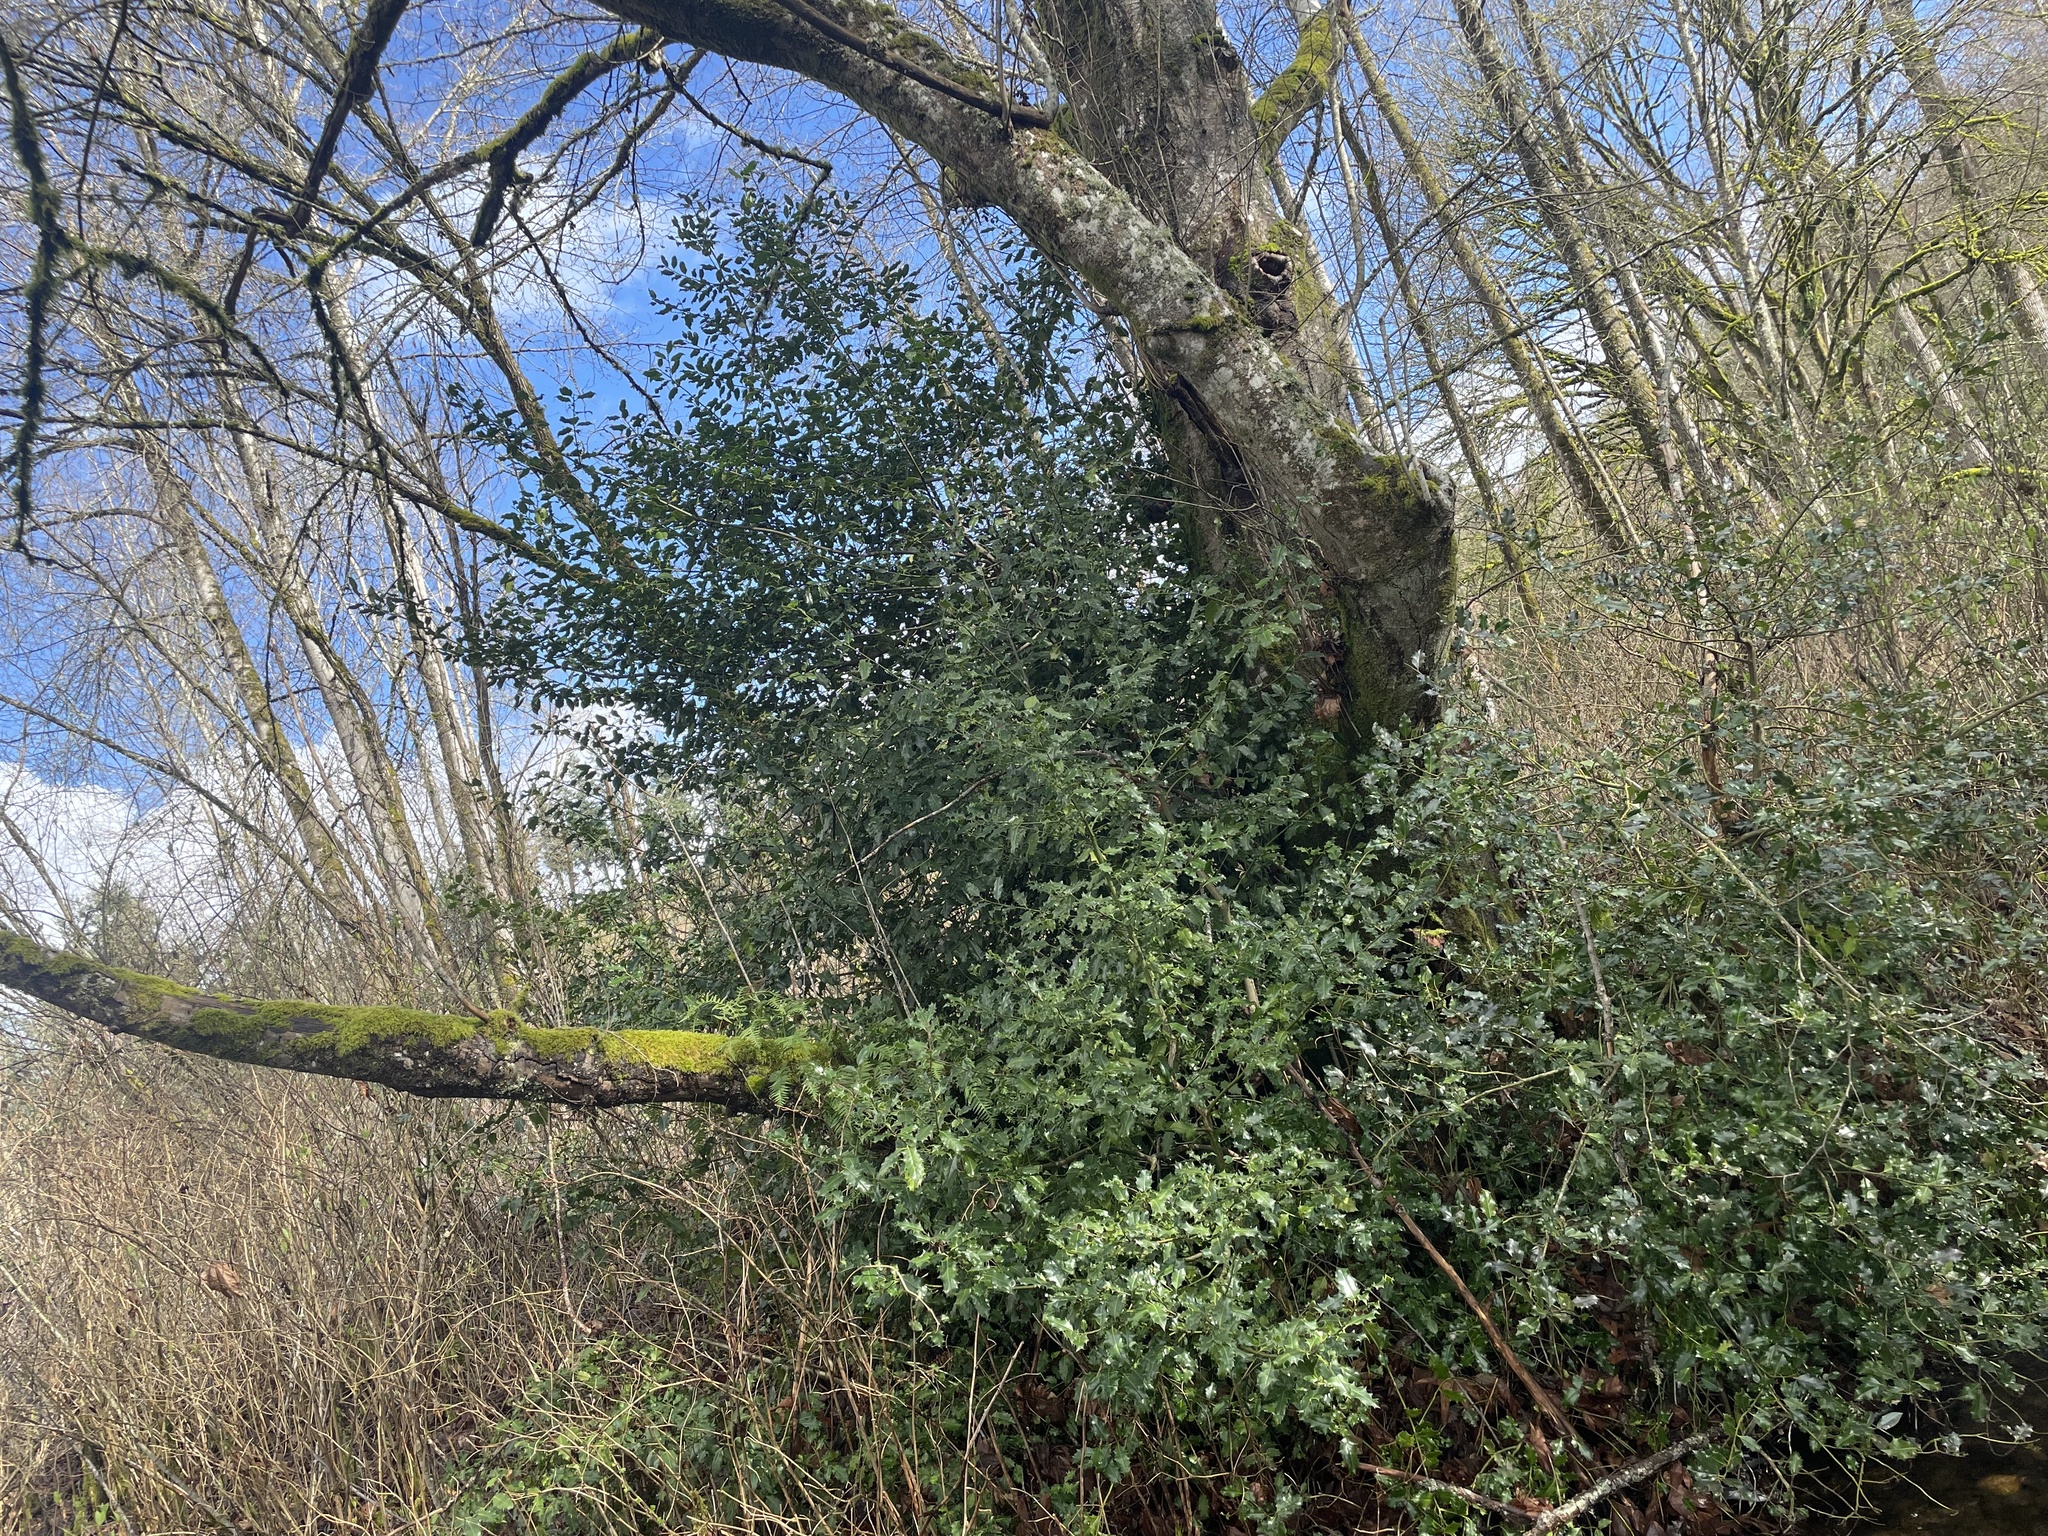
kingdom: Plantae
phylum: Tracheophyta
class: Magnoliopsida
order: Aquifoliales
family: Aquifoliaceae
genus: Ilex
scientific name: Ilex aquifolium
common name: English holly
